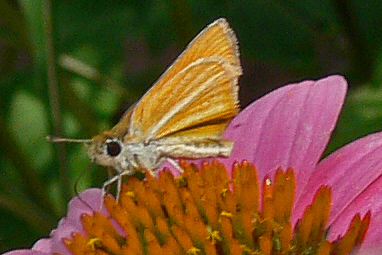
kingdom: Animalia
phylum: Arthropoda
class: Insecta
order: Lepidoptera
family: Hesperiidae
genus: Copaeodes
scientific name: Copaeodes minima
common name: Southern skipperling
